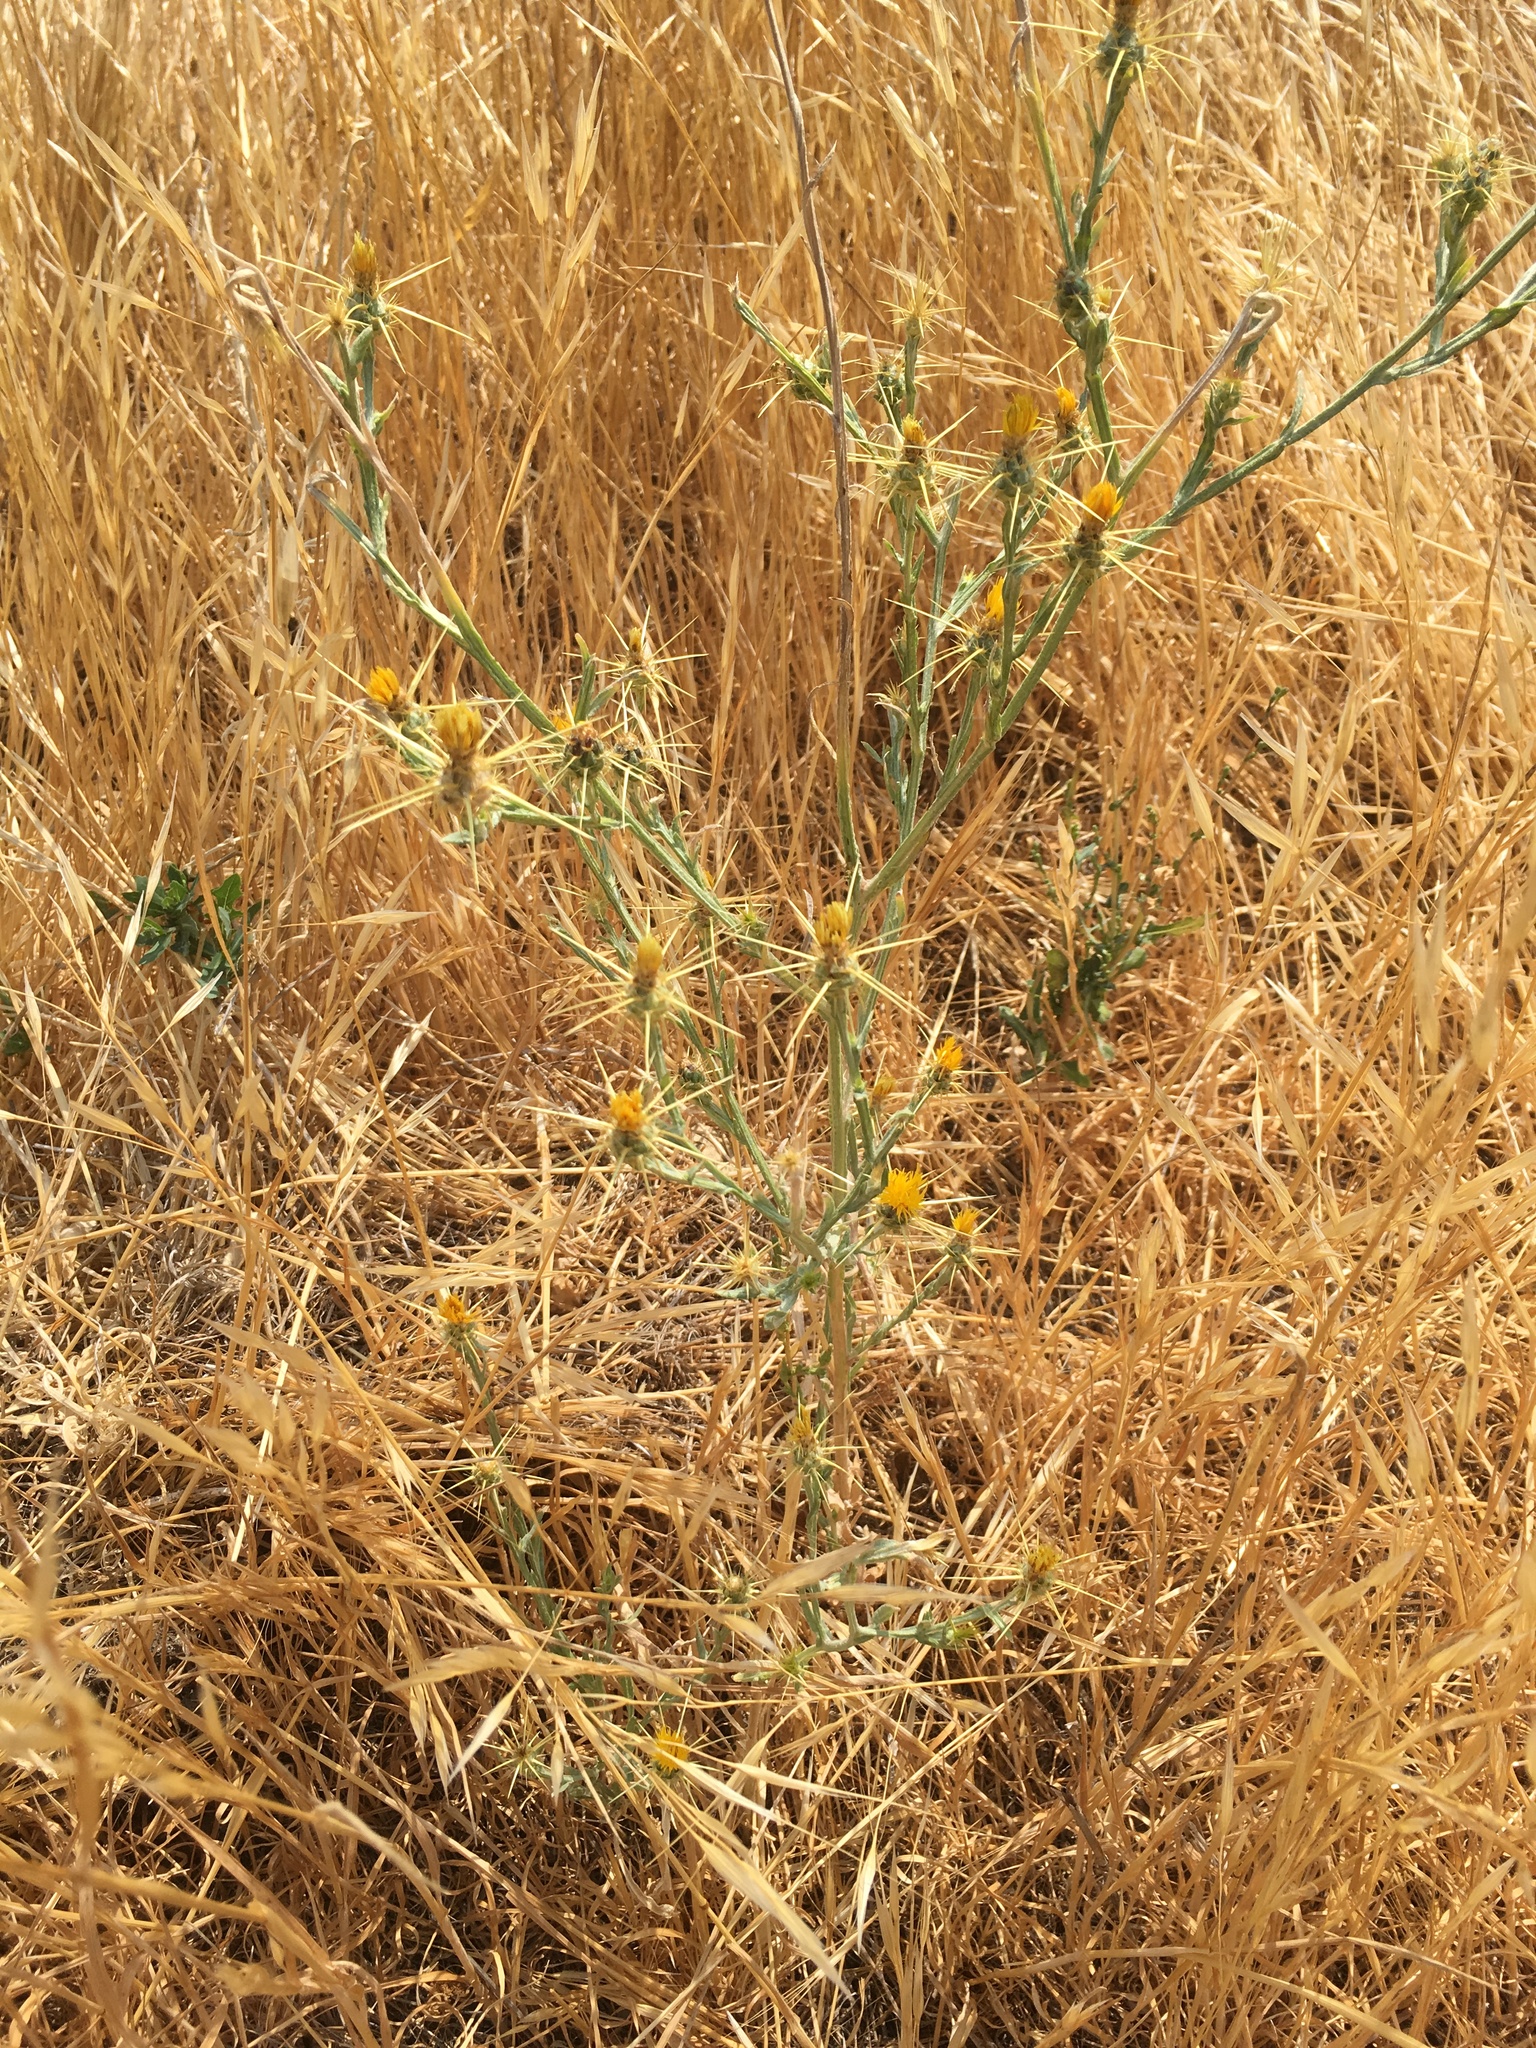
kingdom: Plantae
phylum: Tracheophyta
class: Magnoliopsida
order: Asterales
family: Asteraceae
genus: Centaurea
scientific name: Centaurea solstitialis
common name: Yellow star-thistle
